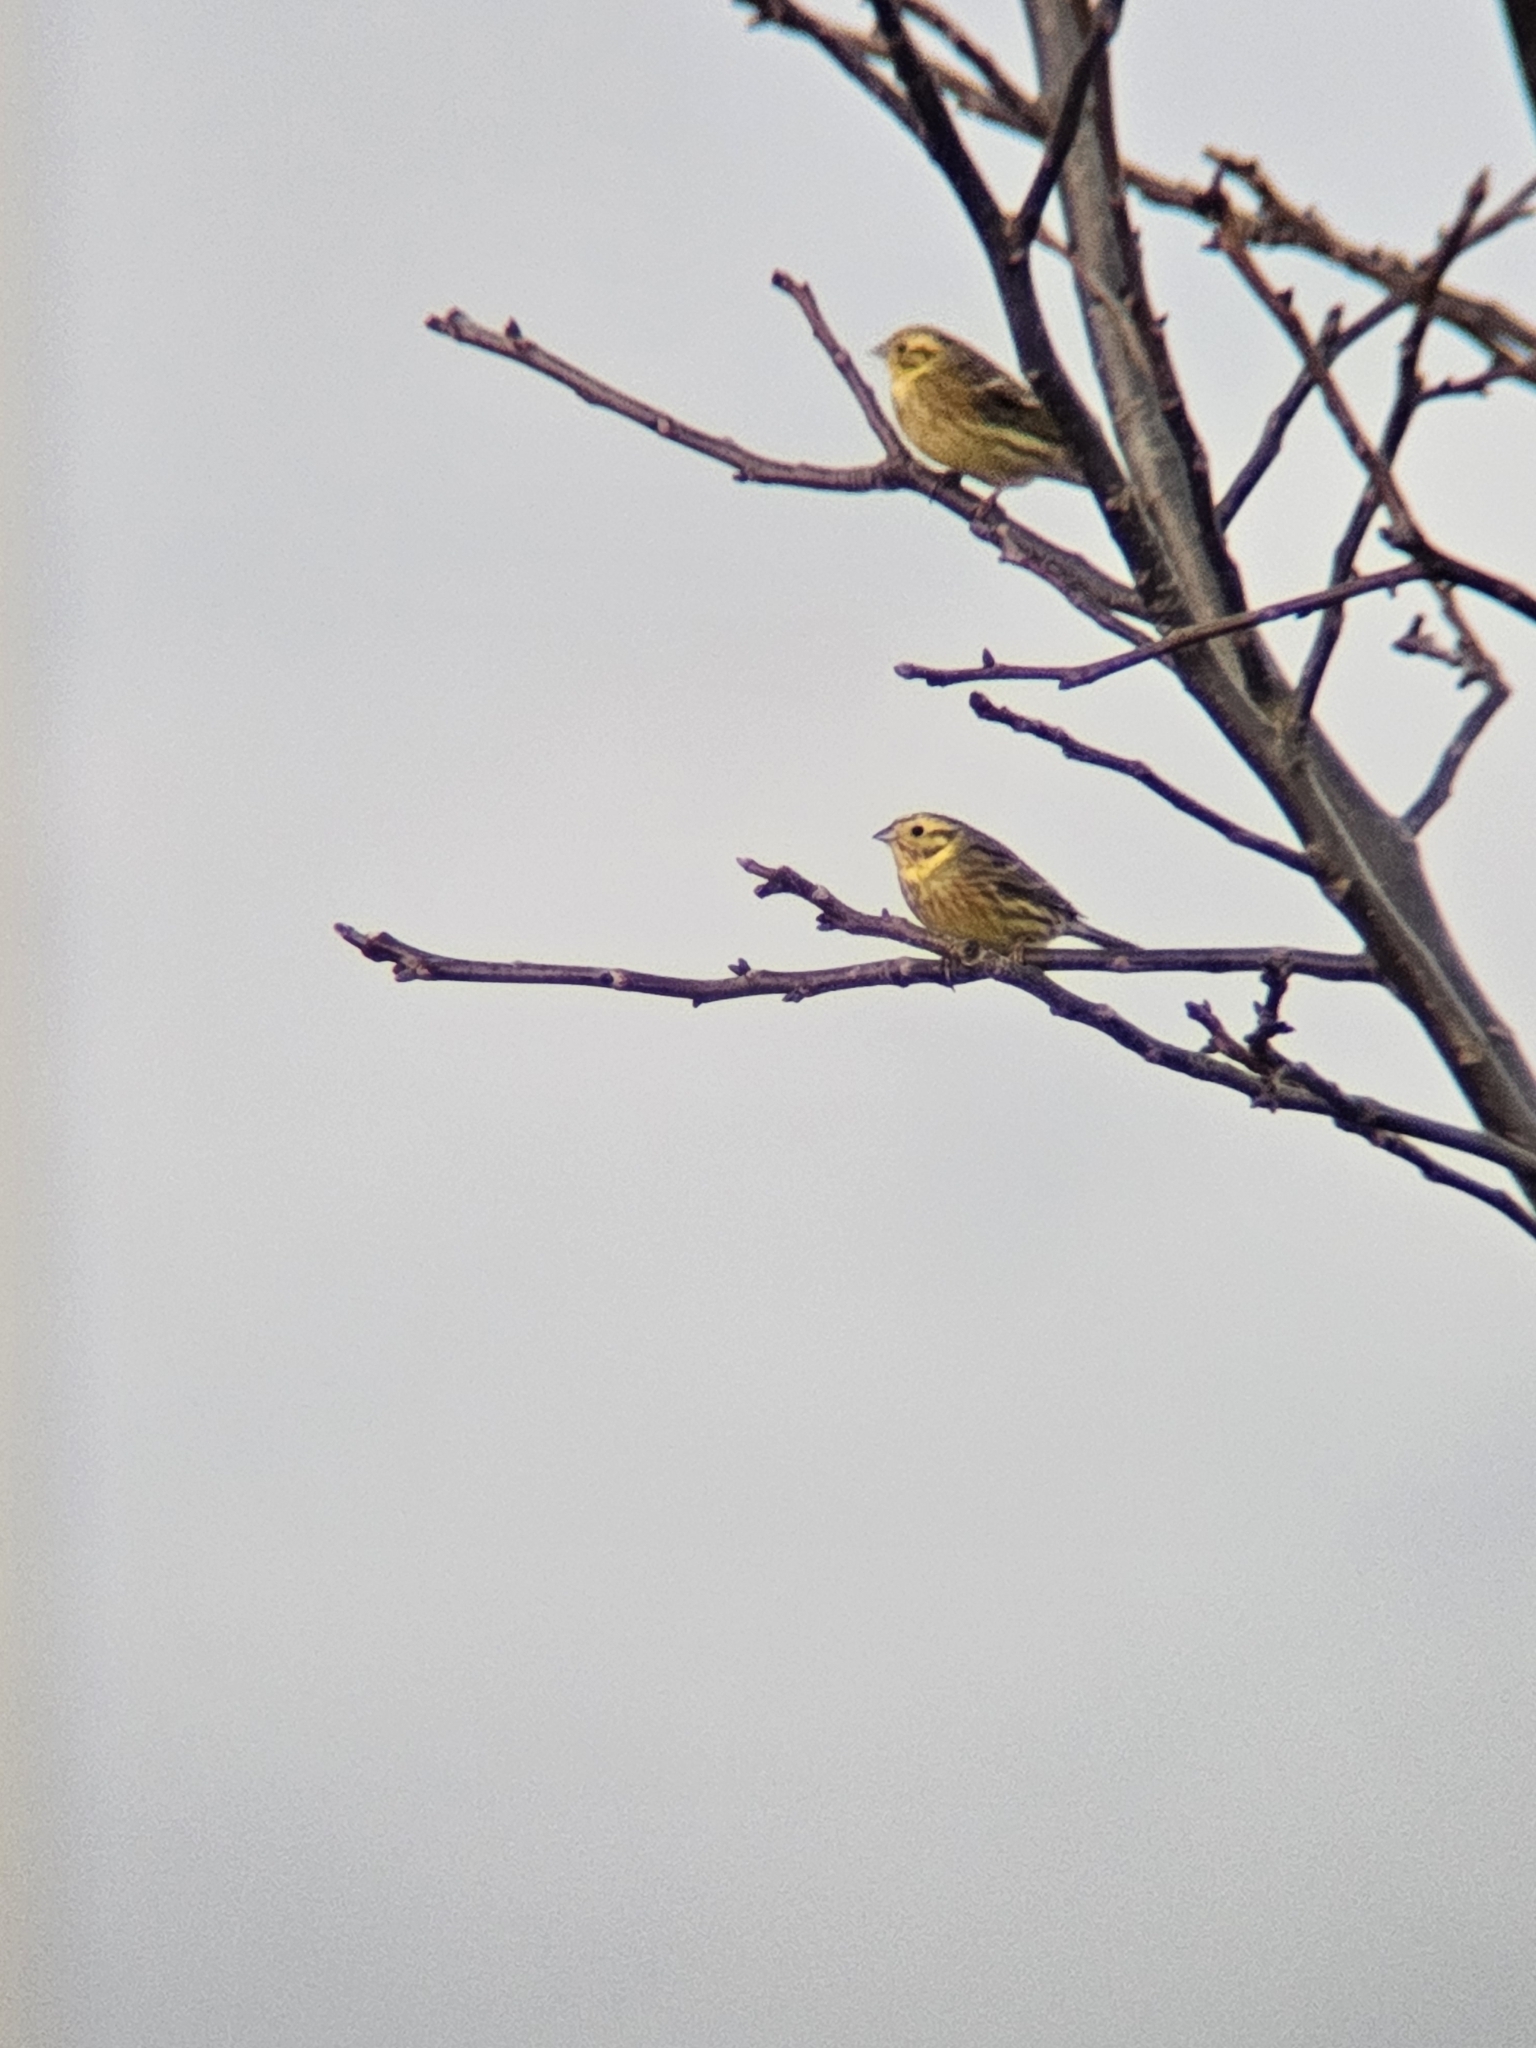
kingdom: Animalia
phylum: Chordata
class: Aves
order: Passeriformes
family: Emberizidae
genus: Emberiza
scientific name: Emberiza citrinella
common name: Yellowhammer
